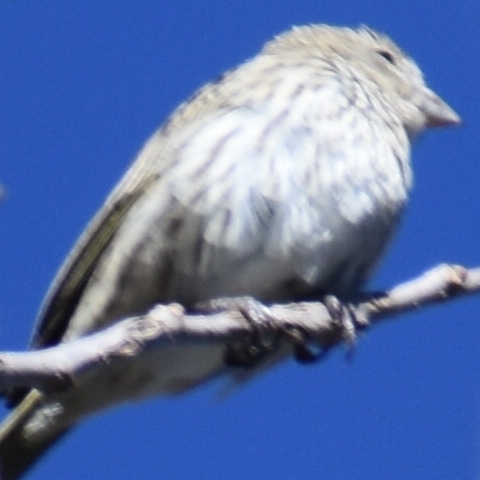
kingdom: Animalia
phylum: Chordata
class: Aves
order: Passeriformes
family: Thraupidae
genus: Sicalis
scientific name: Sicalis flaveola
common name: Saffron finch
